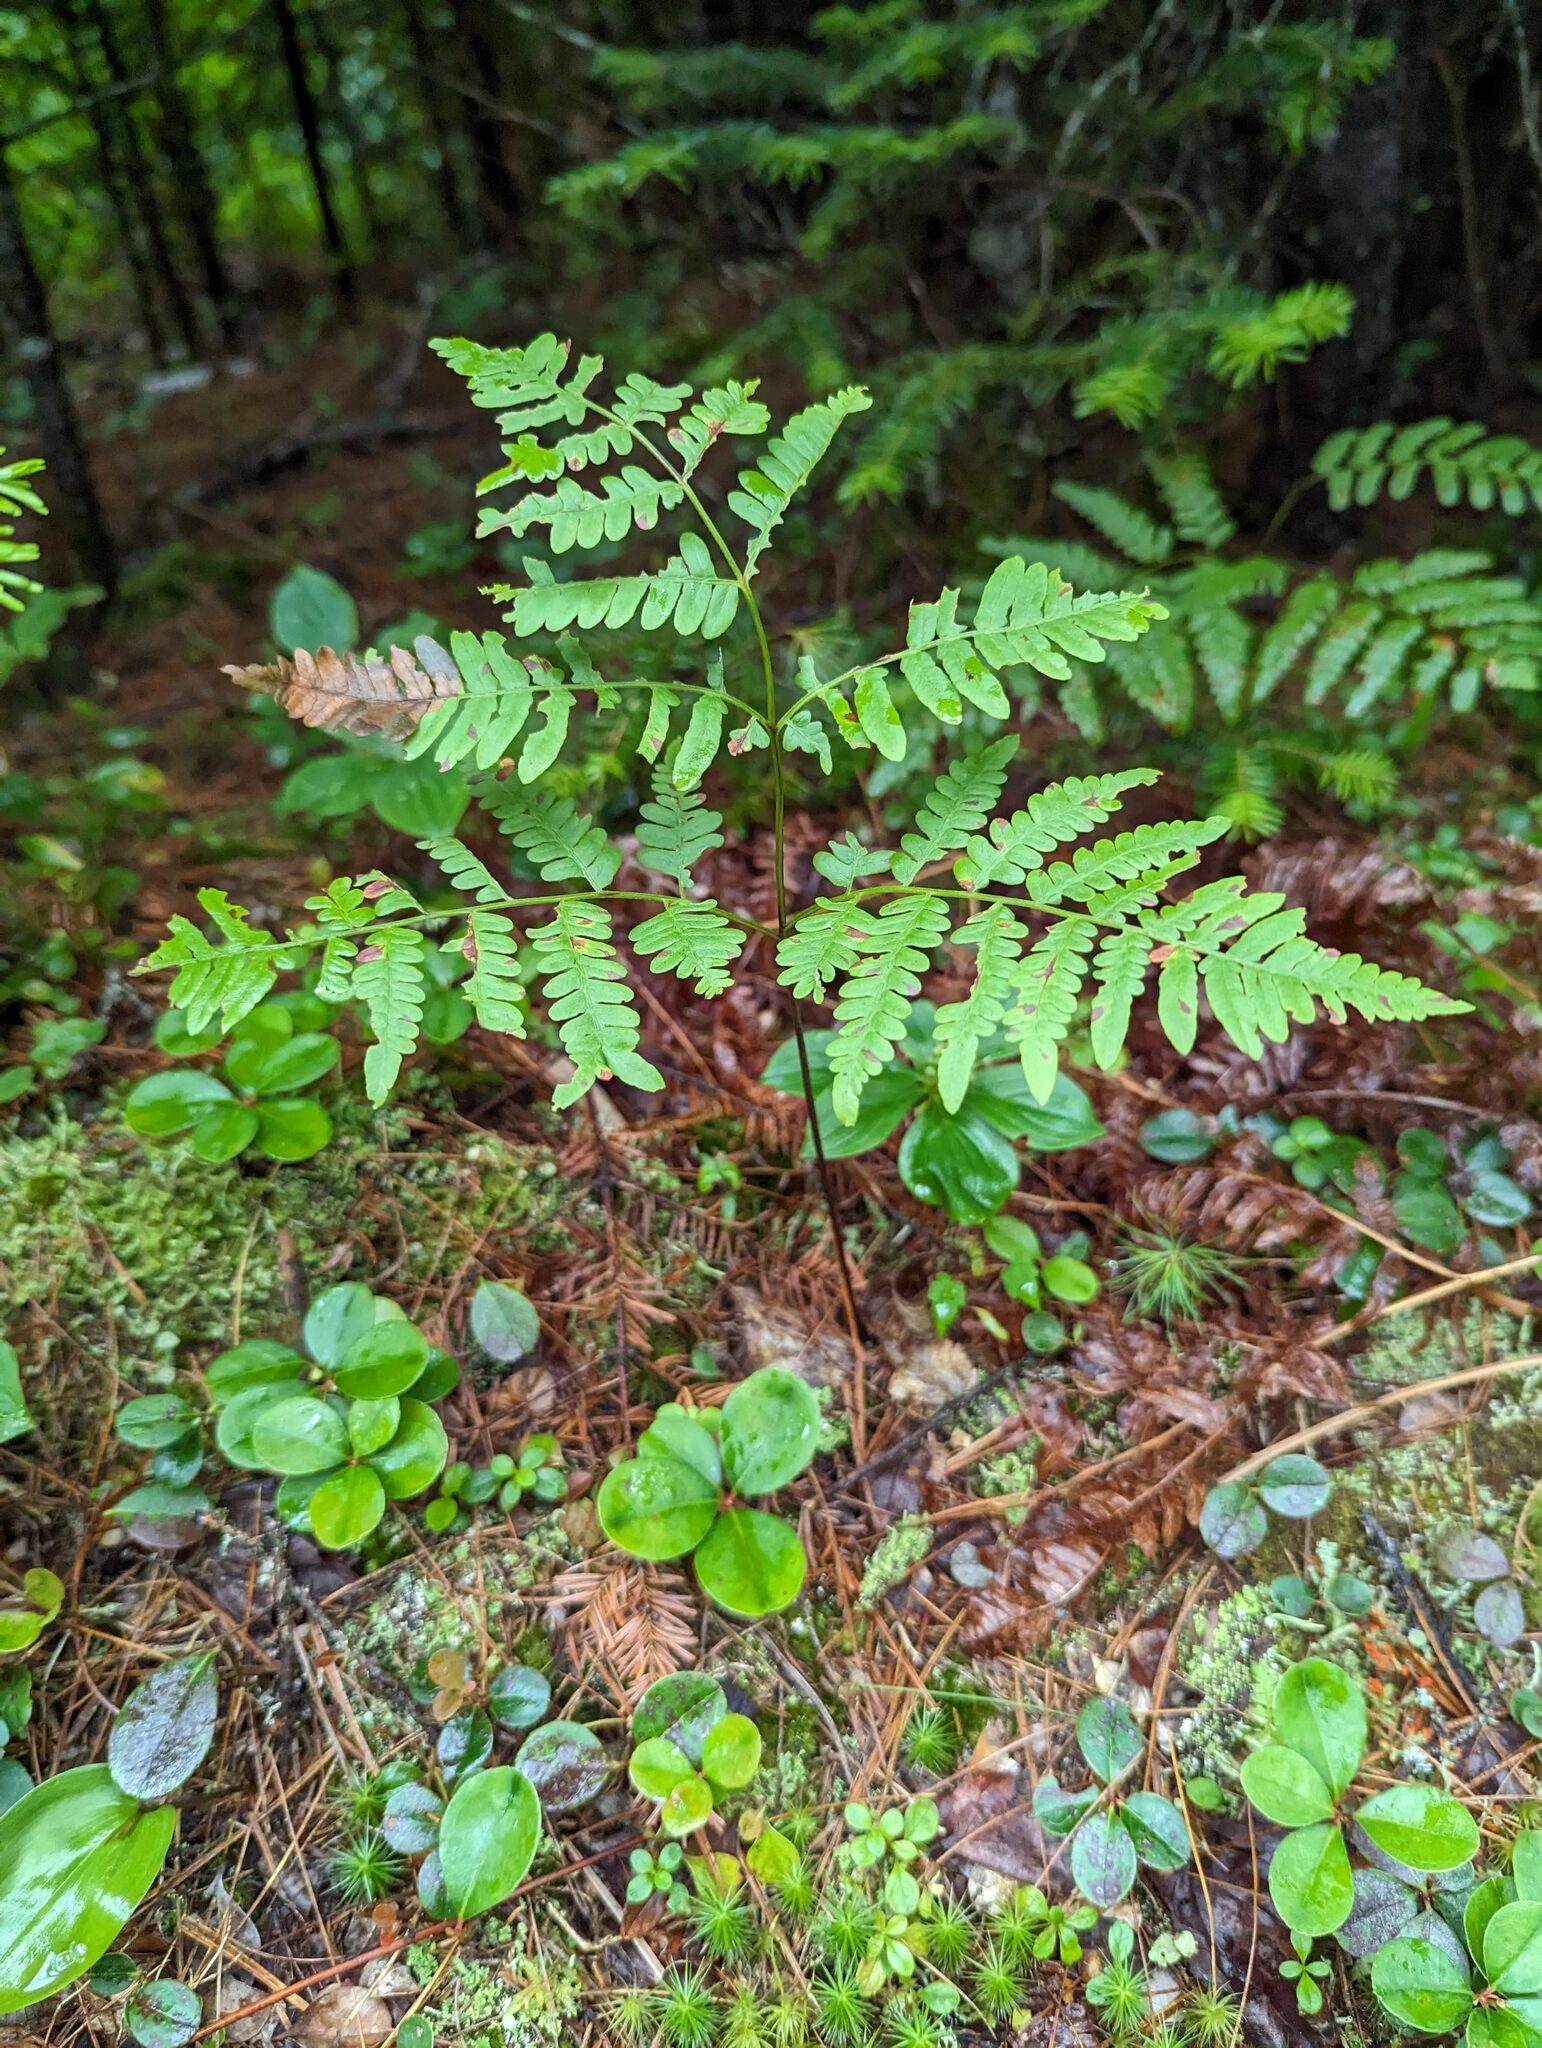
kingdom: Plantae
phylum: Tracheophyta
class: Polypodiopsida
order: Polypodiales
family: Dennstaedtiaceae
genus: Pteridium
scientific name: Pteridium aquilinum
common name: Bracken
